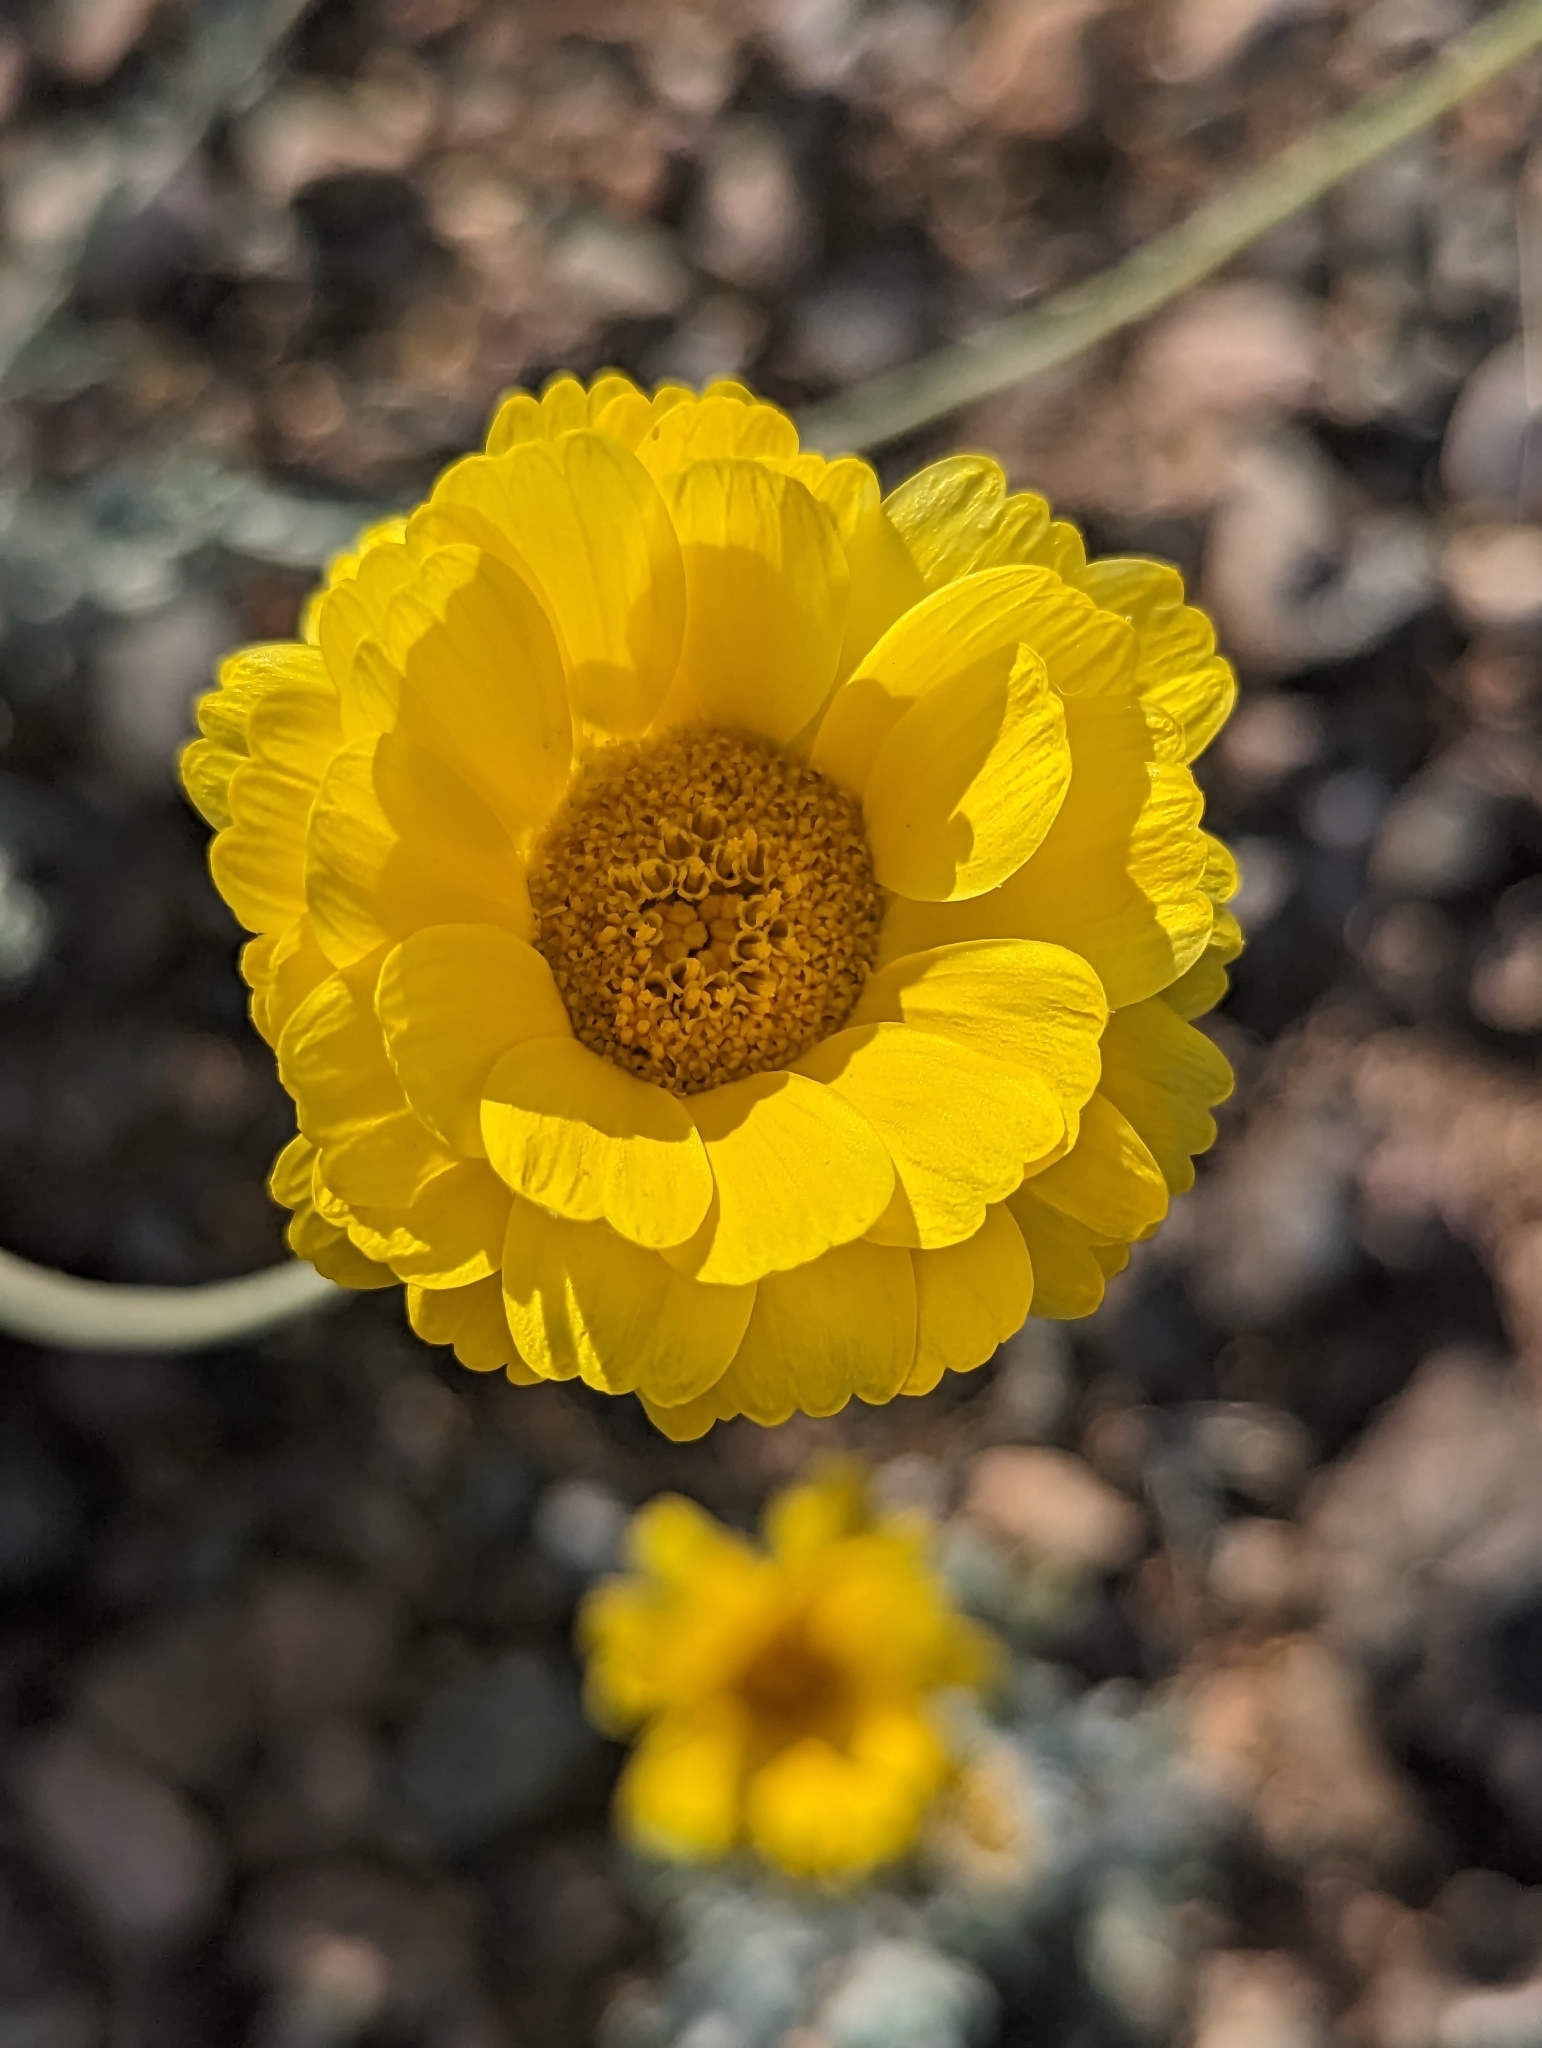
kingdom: Plantae
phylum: Tracheophyta
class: Magnoliopsida
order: Asterales
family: Asteraceae
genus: Baileya
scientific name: Baileya multiradiata
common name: Desert-marigold
